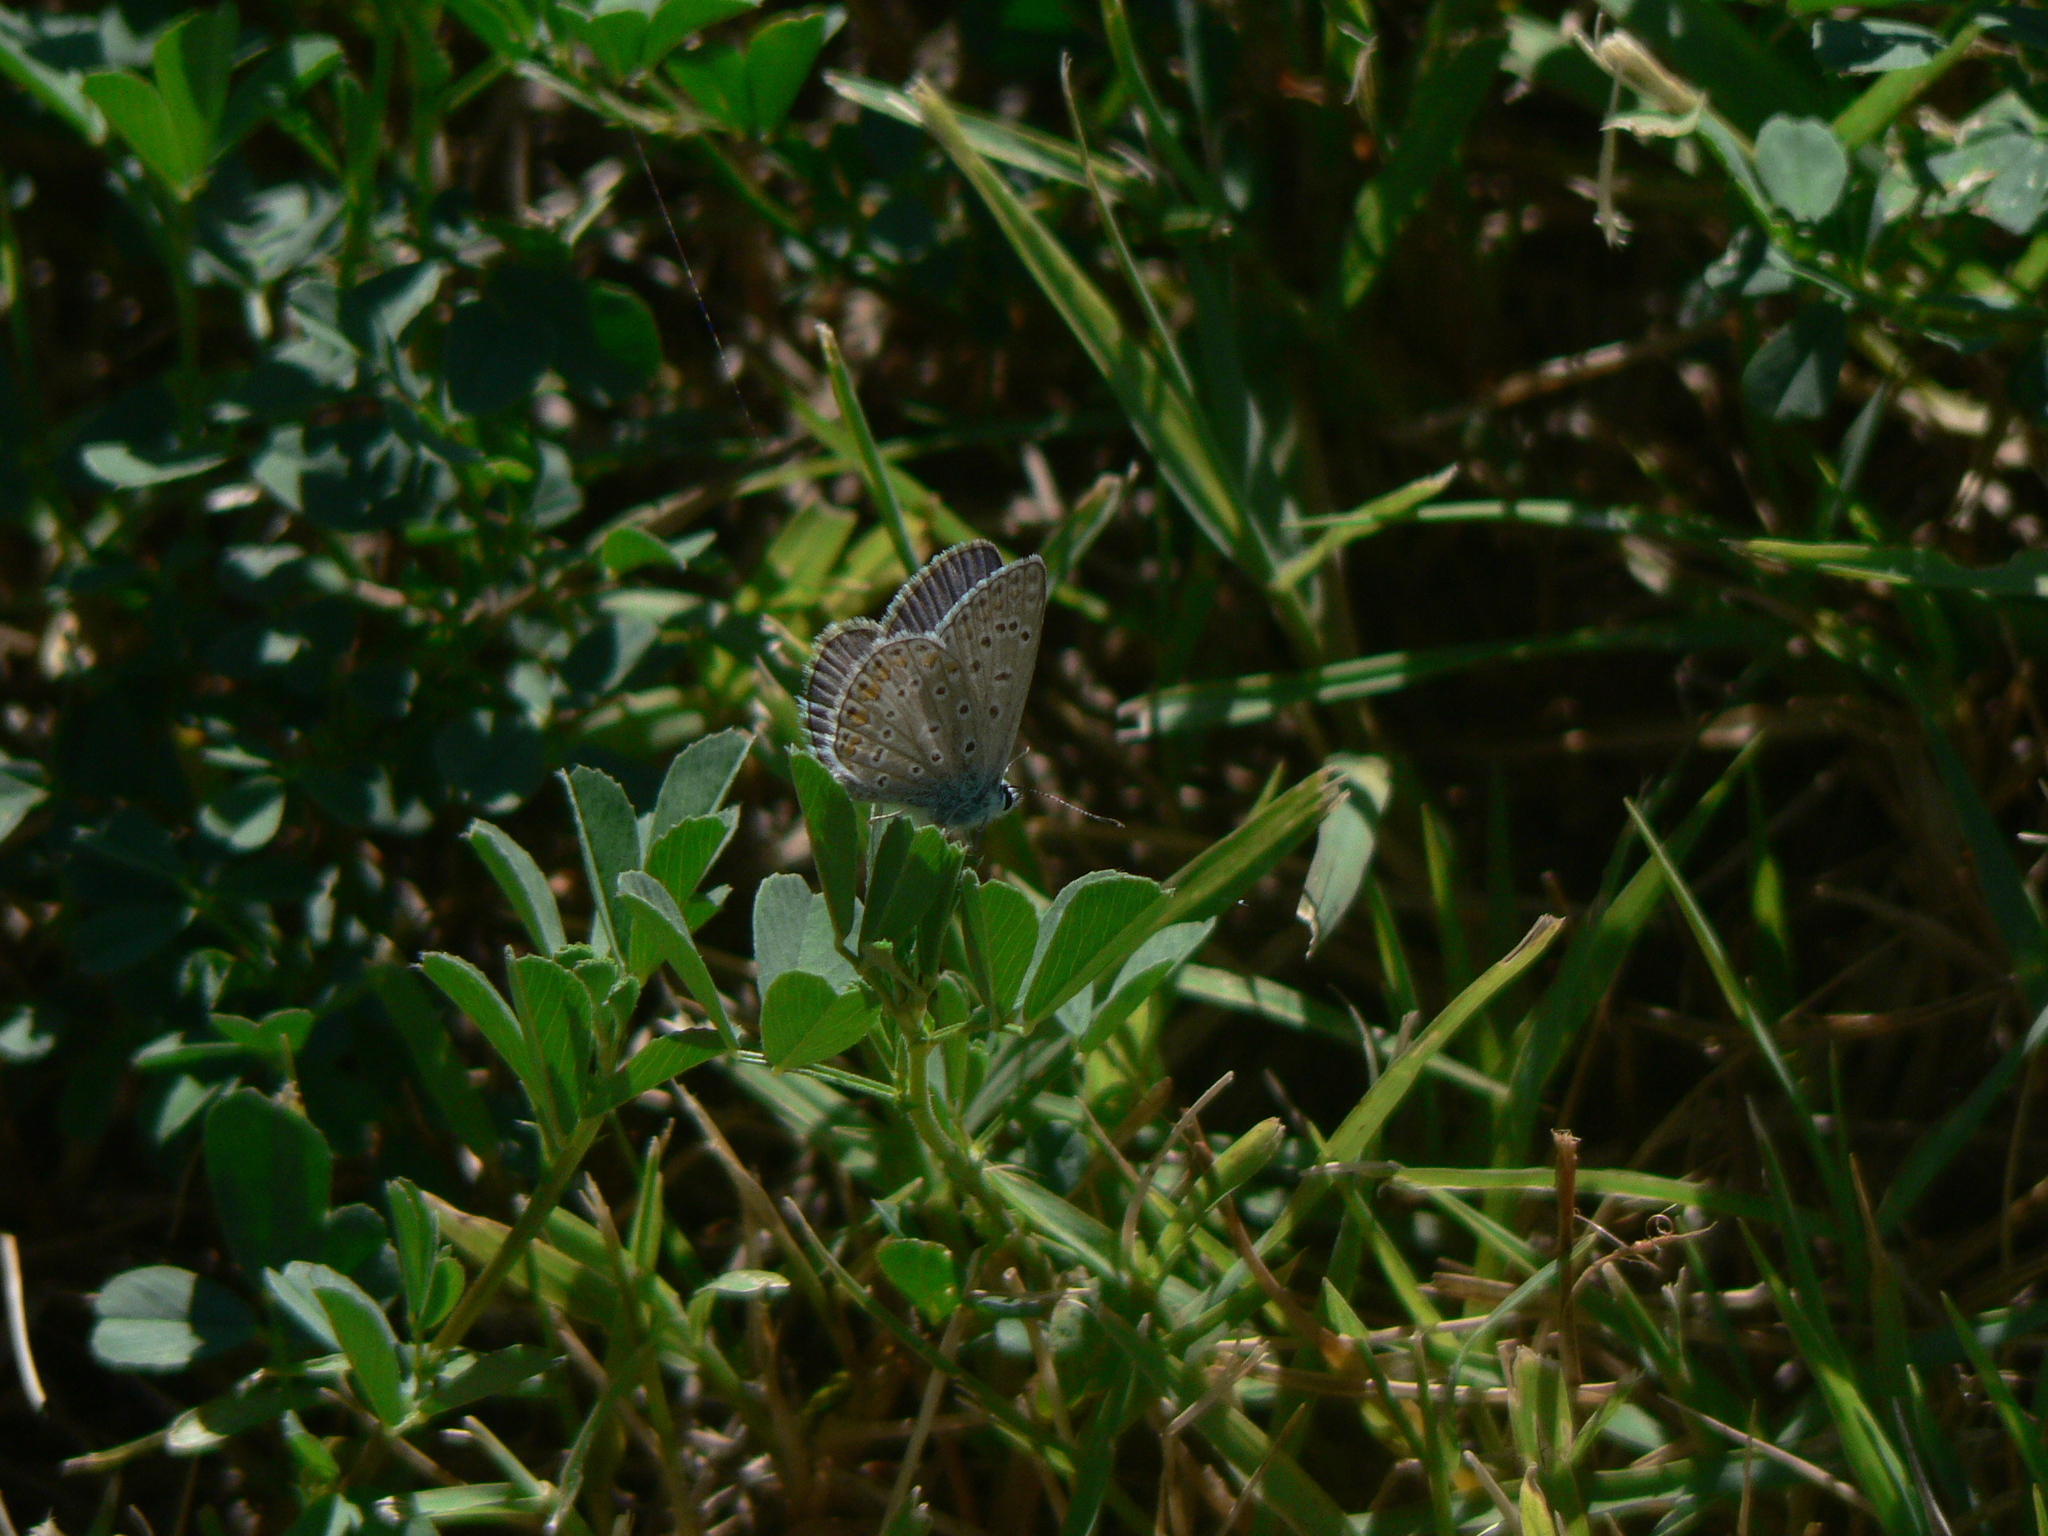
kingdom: Animalia
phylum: Arthropoda
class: Insecta
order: Lepidoptera
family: Lycaenidae
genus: Polyommatus
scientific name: Polyommatus icarus
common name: Common blue
